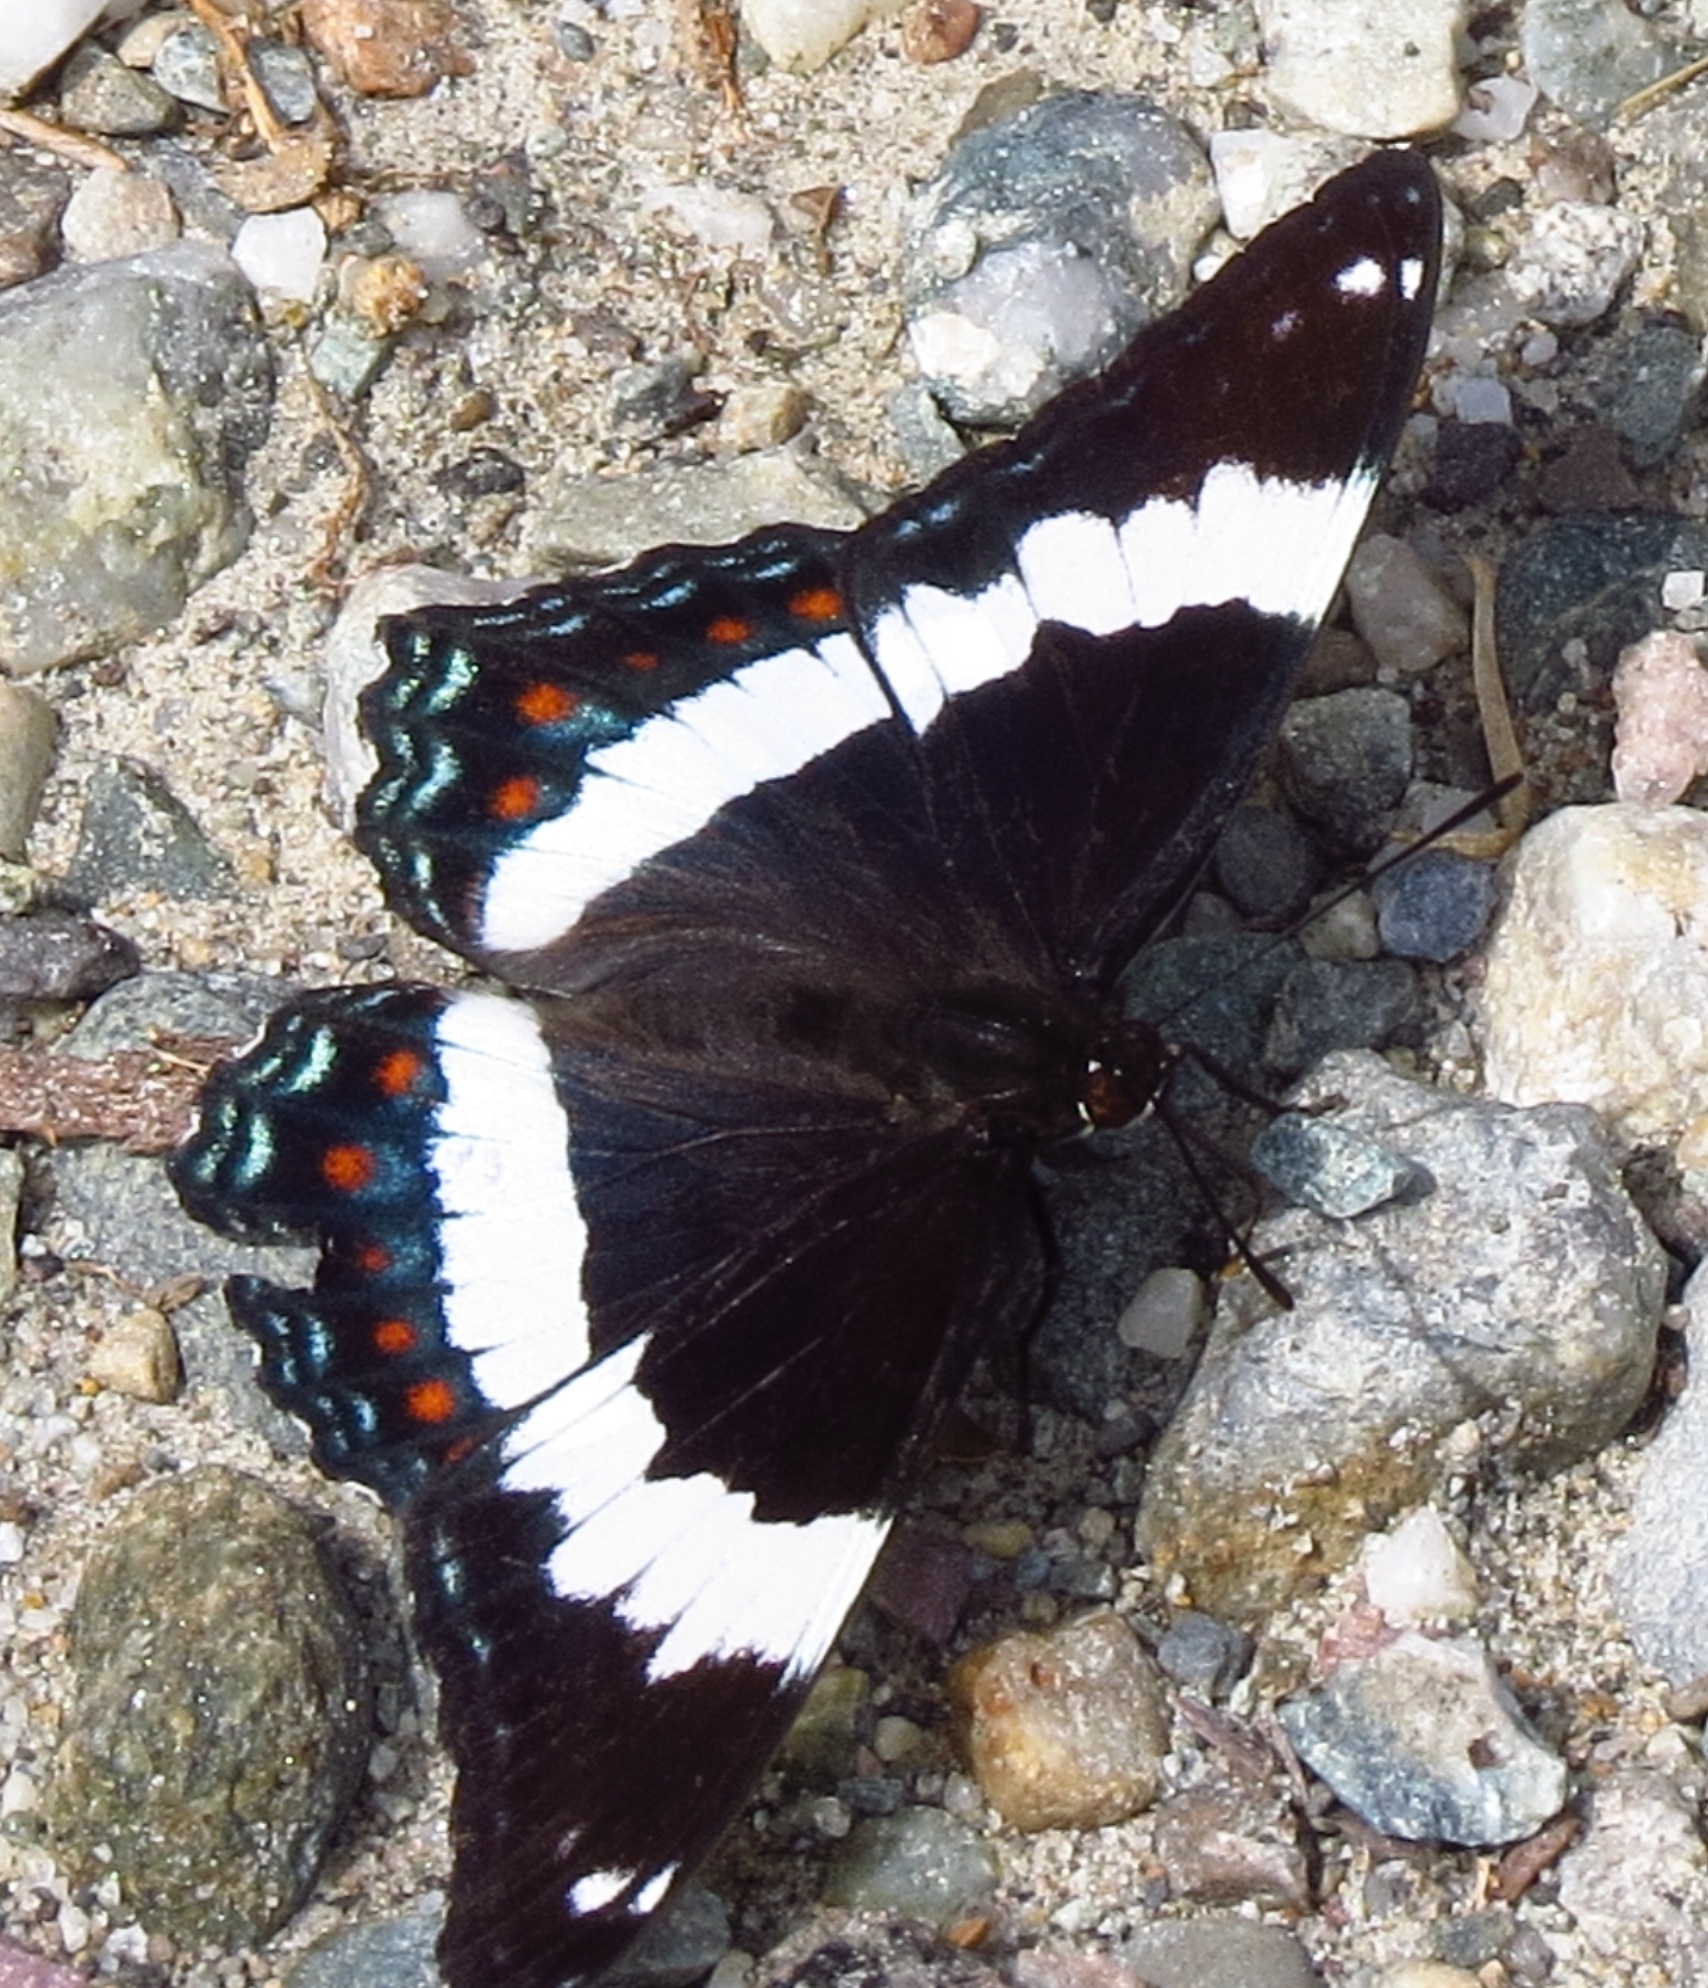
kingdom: Animalia
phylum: Arthropoda
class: Insecta
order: Lepidoptera
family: Nymphalidae
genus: Limenitis
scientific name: Limenitis arthemis
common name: Red-spotted admiral
